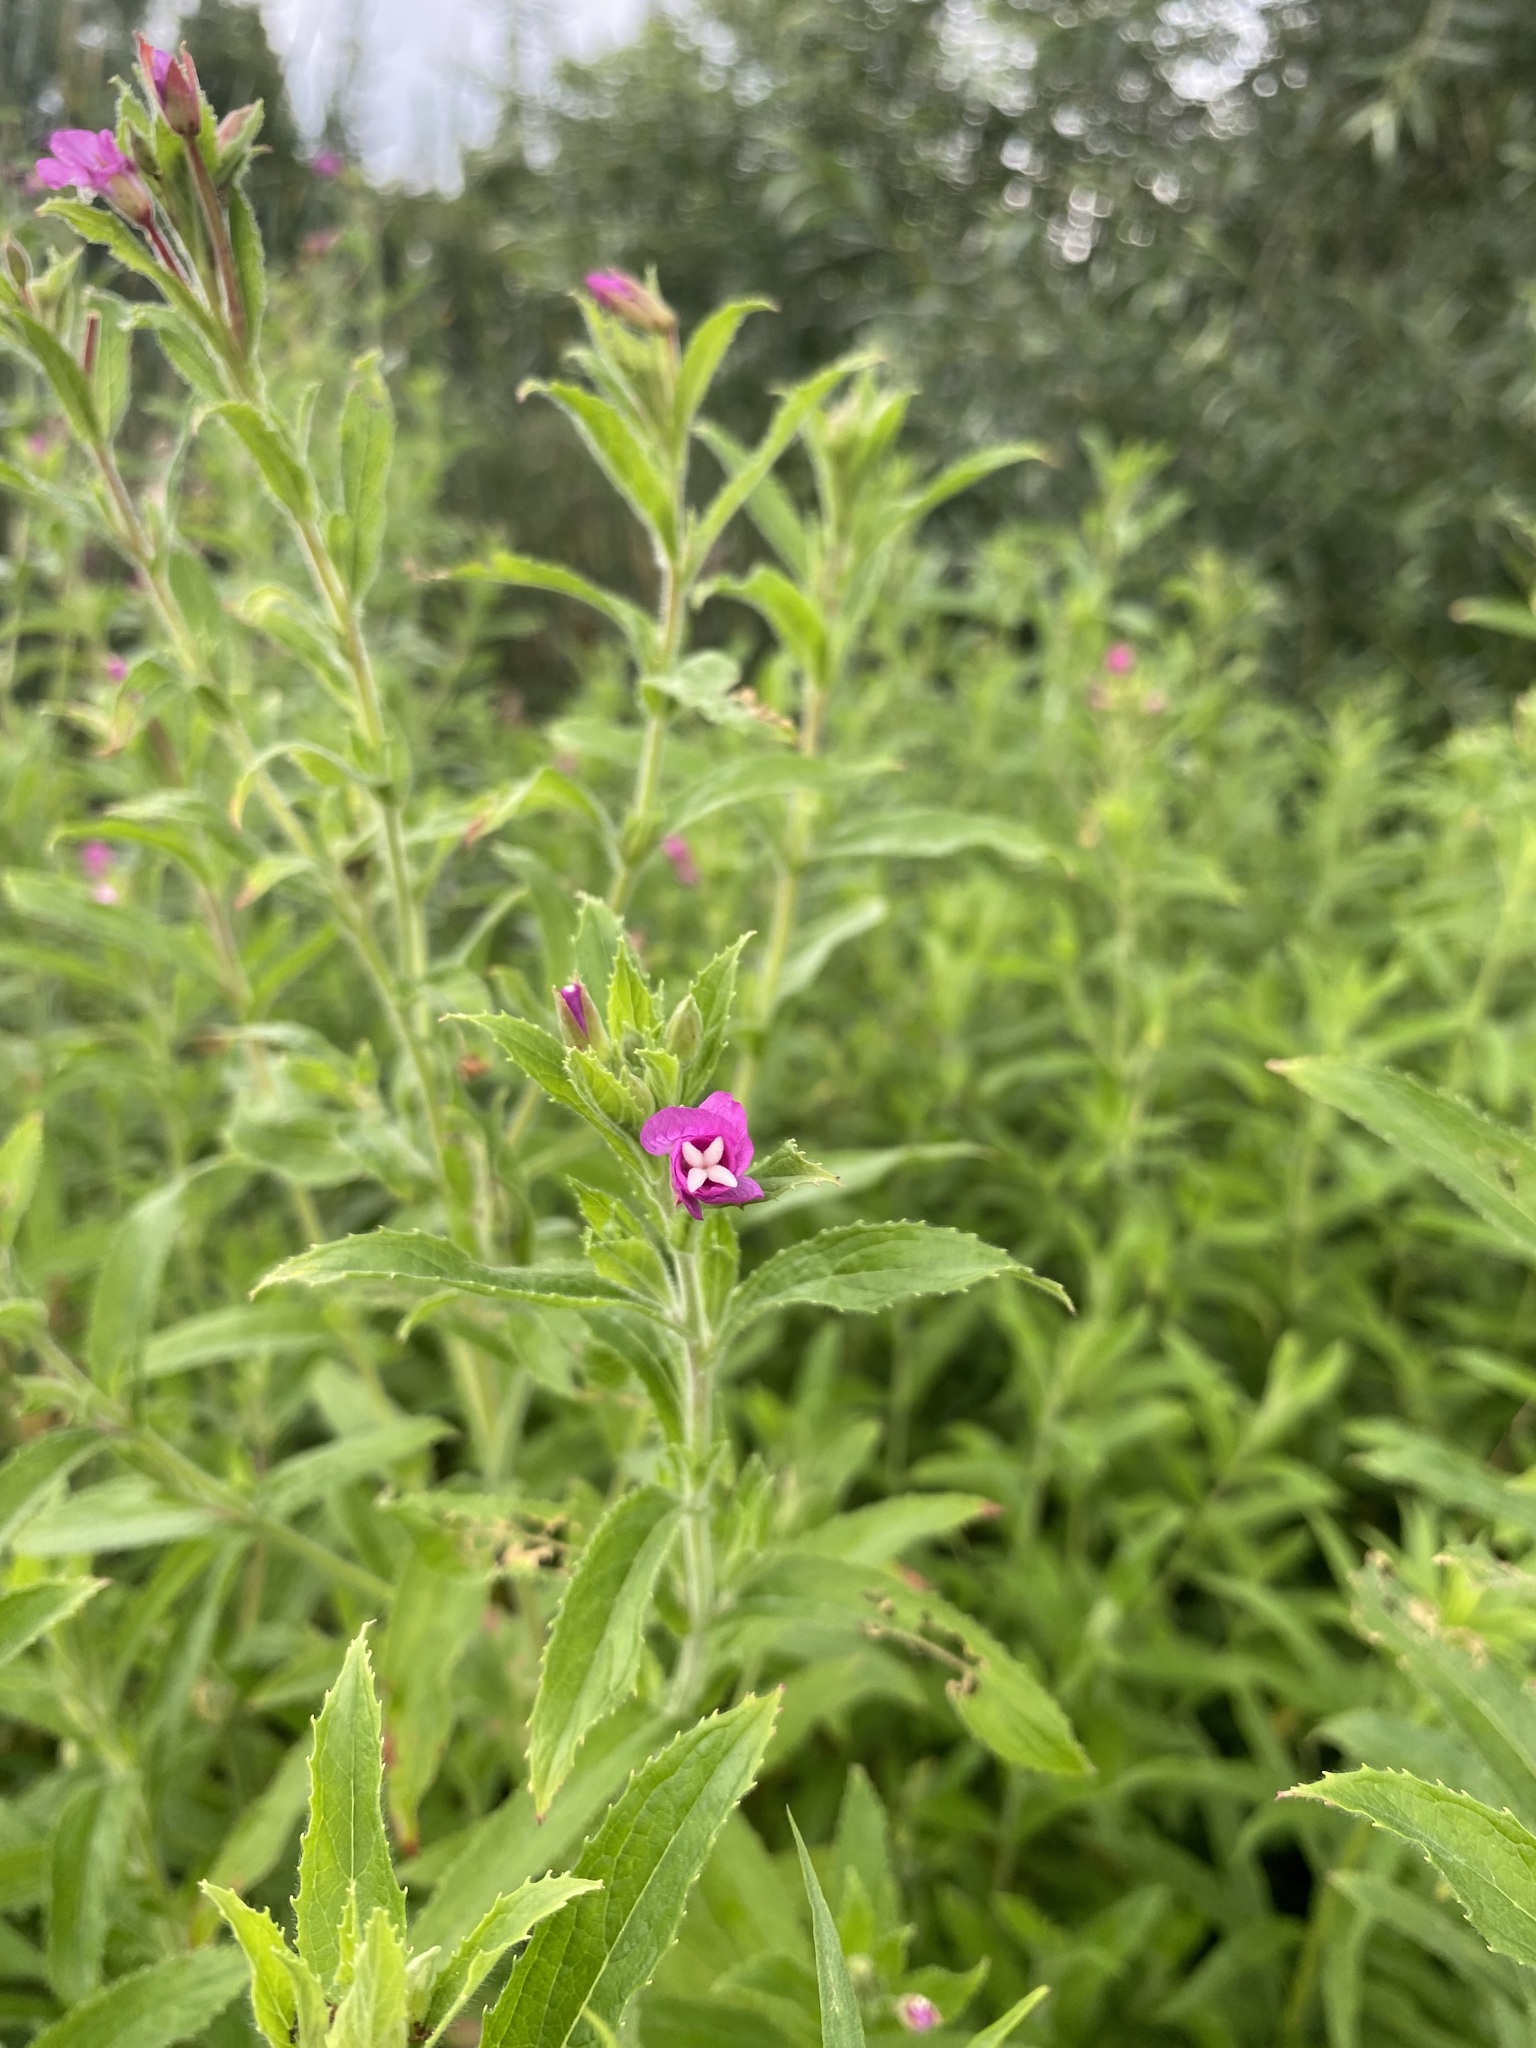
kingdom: Plantae
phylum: Tracheophyta
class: Magnoliopsida
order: Myrtales
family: Onagraceae
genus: Epilobium
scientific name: Epilobium hirsutum
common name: Great willowherb
